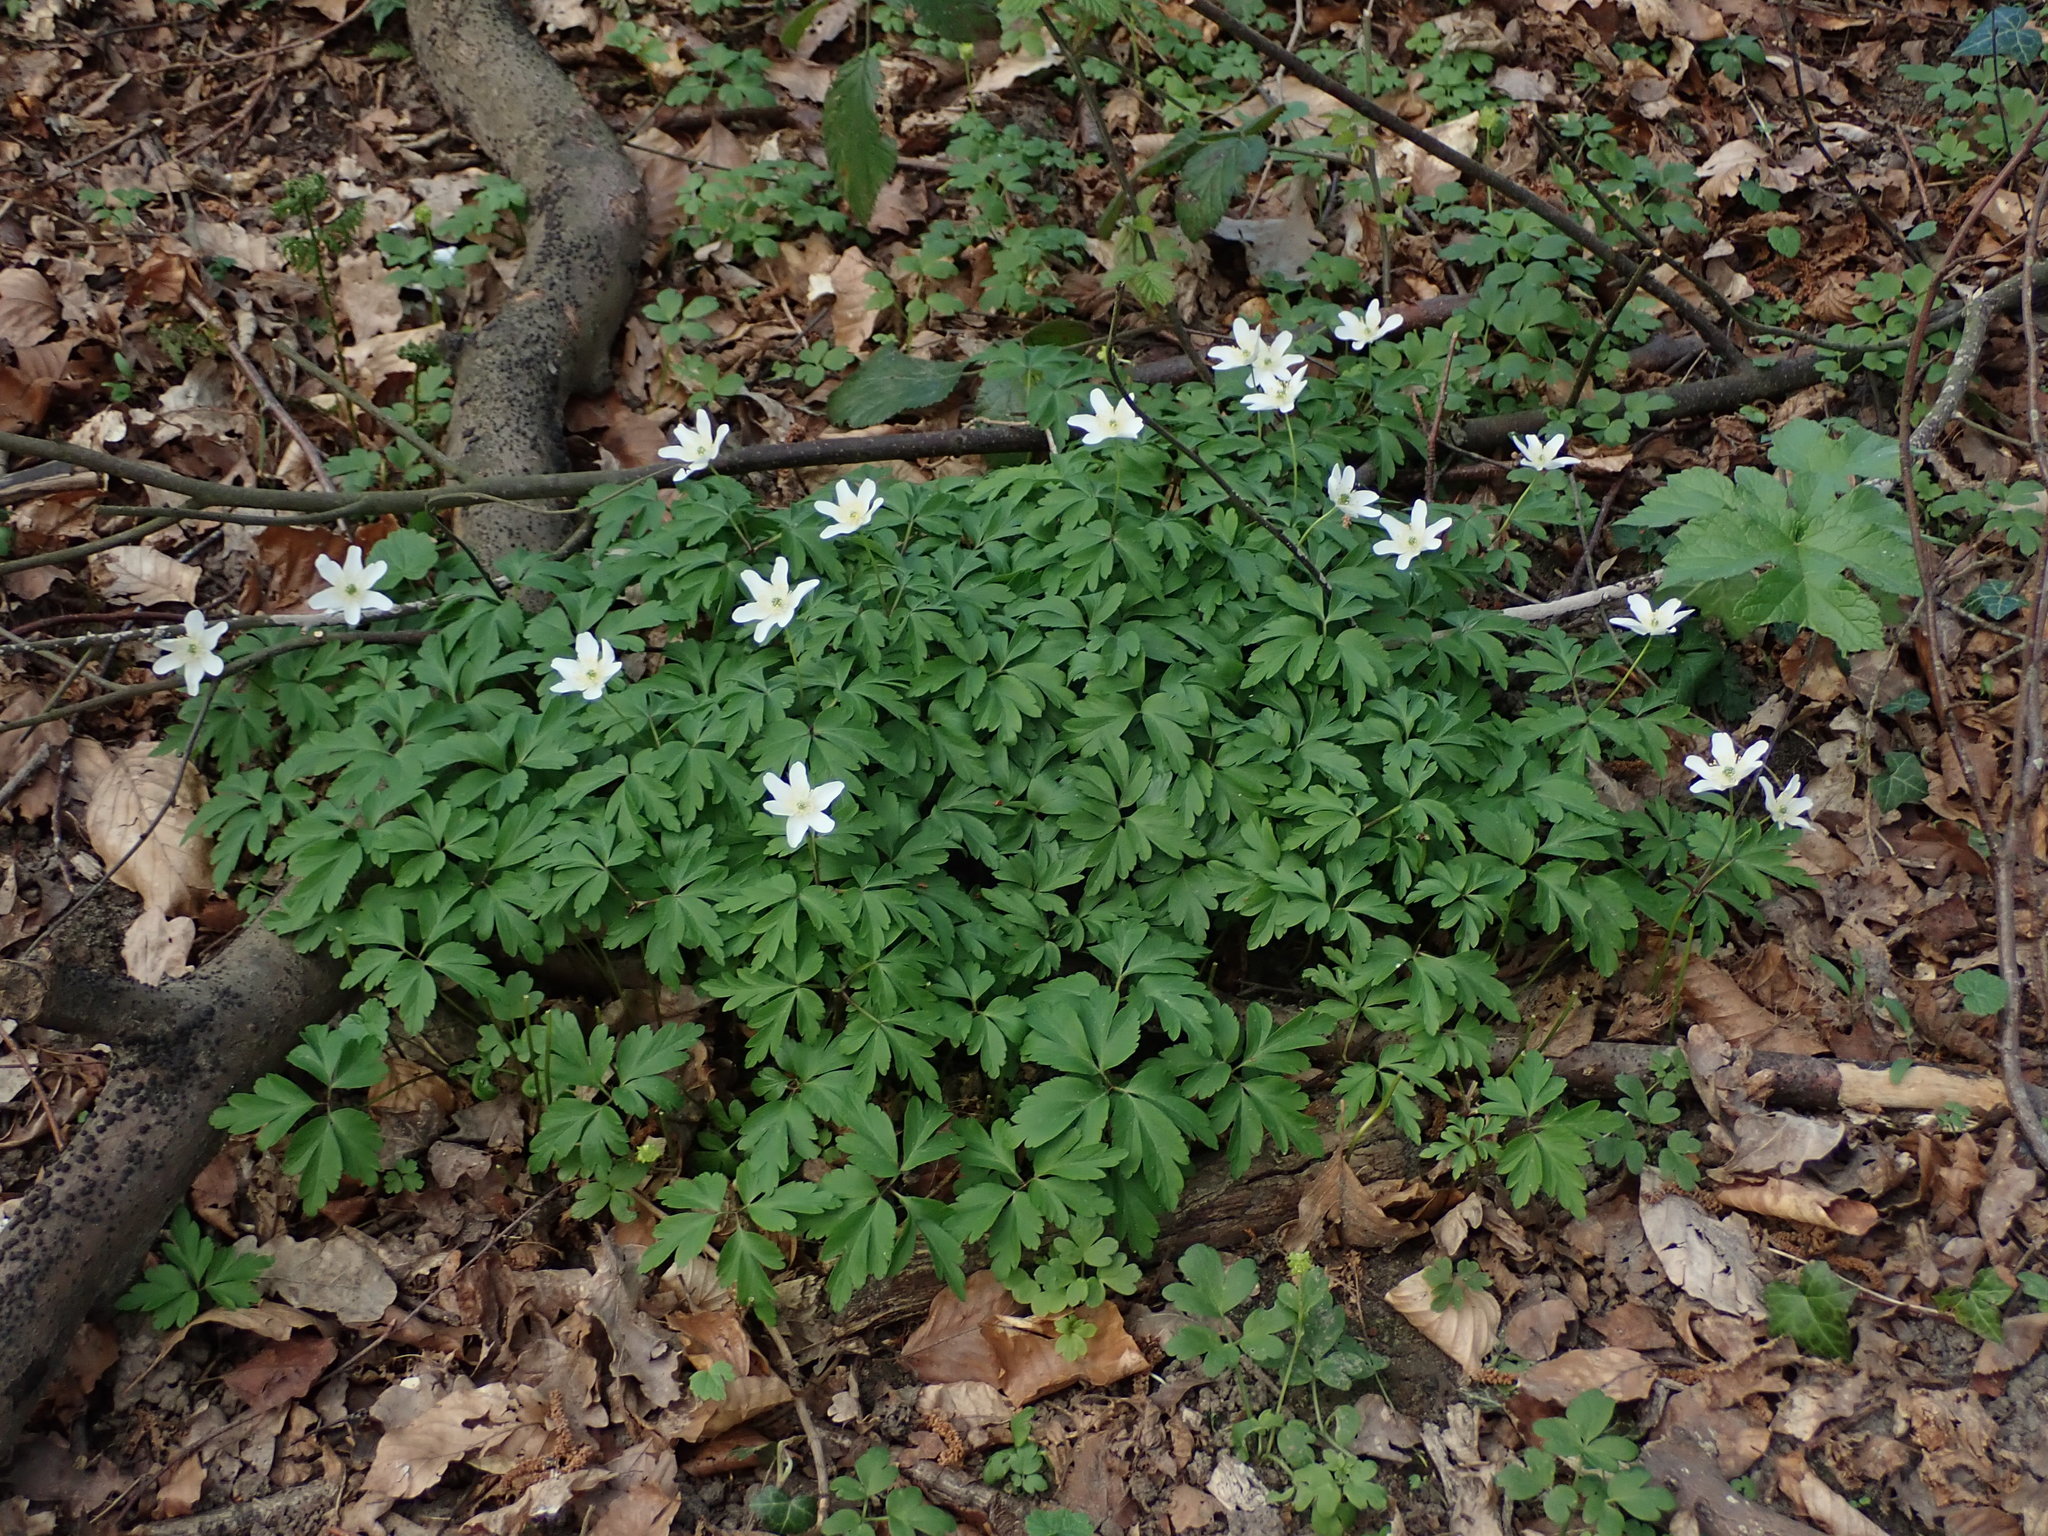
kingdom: Plantae
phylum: Tracheophyta
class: Magnoliopsida
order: Ranunculales
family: Ranunculaceae
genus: Anemone
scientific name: Anemone nemorosa
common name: Wood anemone
